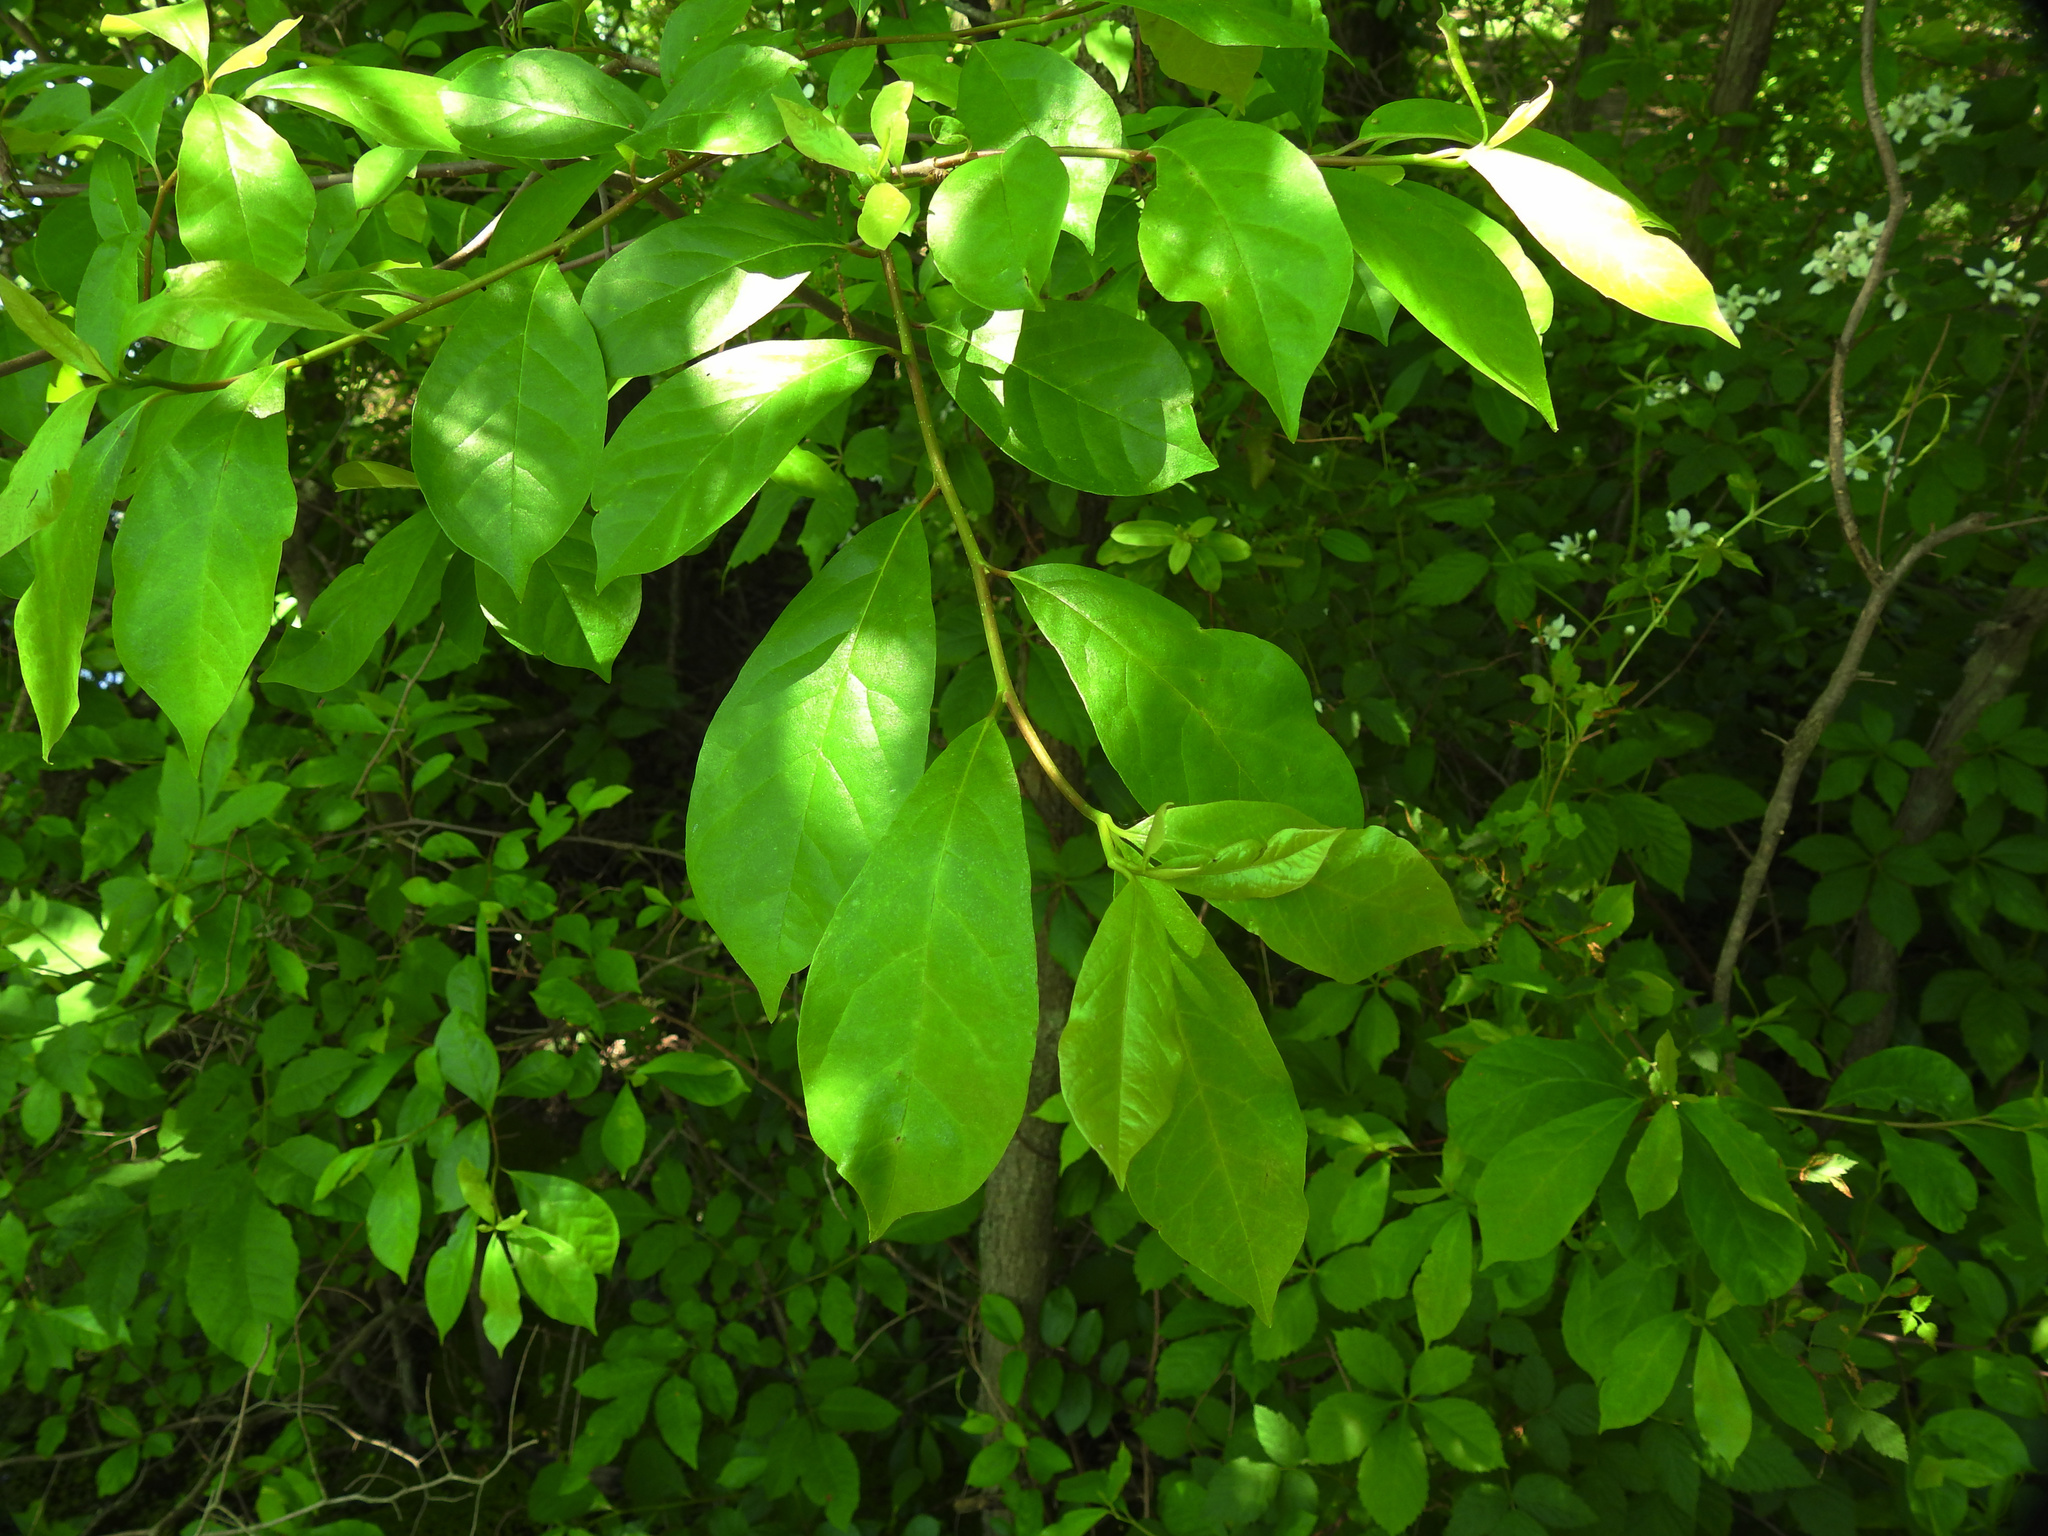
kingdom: Plantae
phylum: Tracheophyta
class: Magnoliopsida
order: Cornales
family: Nyssaceae
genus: Nyssa
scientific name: Nyssa sylvatica
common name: Black tupelo
